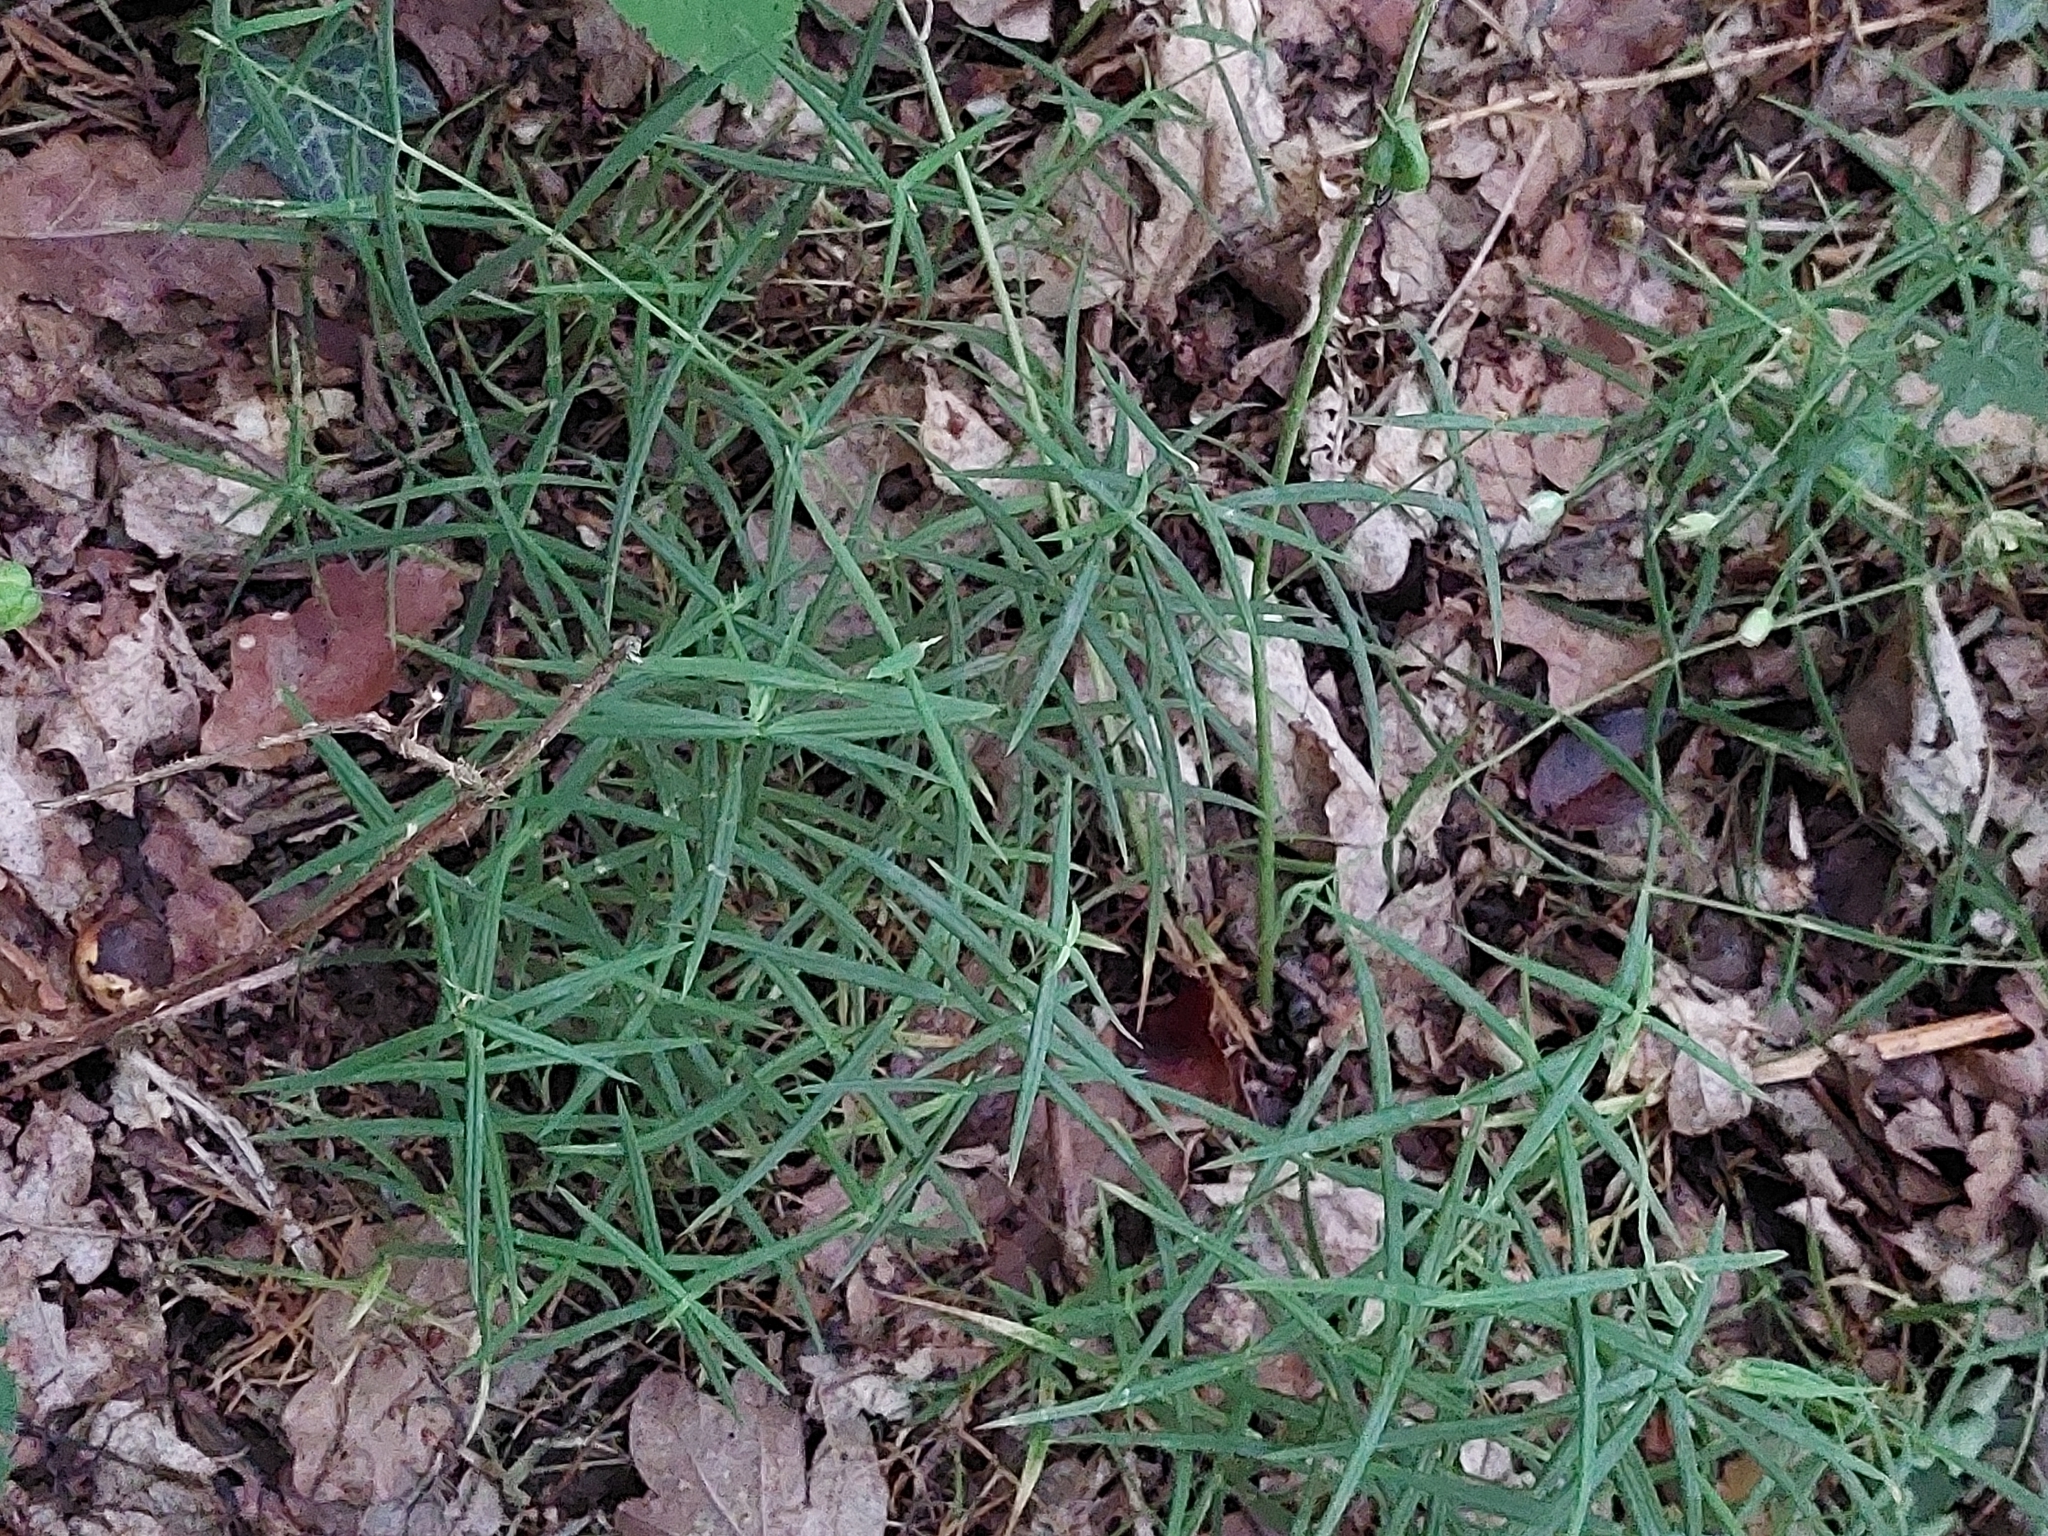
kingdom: Plantae
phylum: Tracheophyta
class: Magnoliopsida
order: Caryophyllales
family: Caryophyllaceae
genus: Rabelera
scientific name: Rabelera holostea
